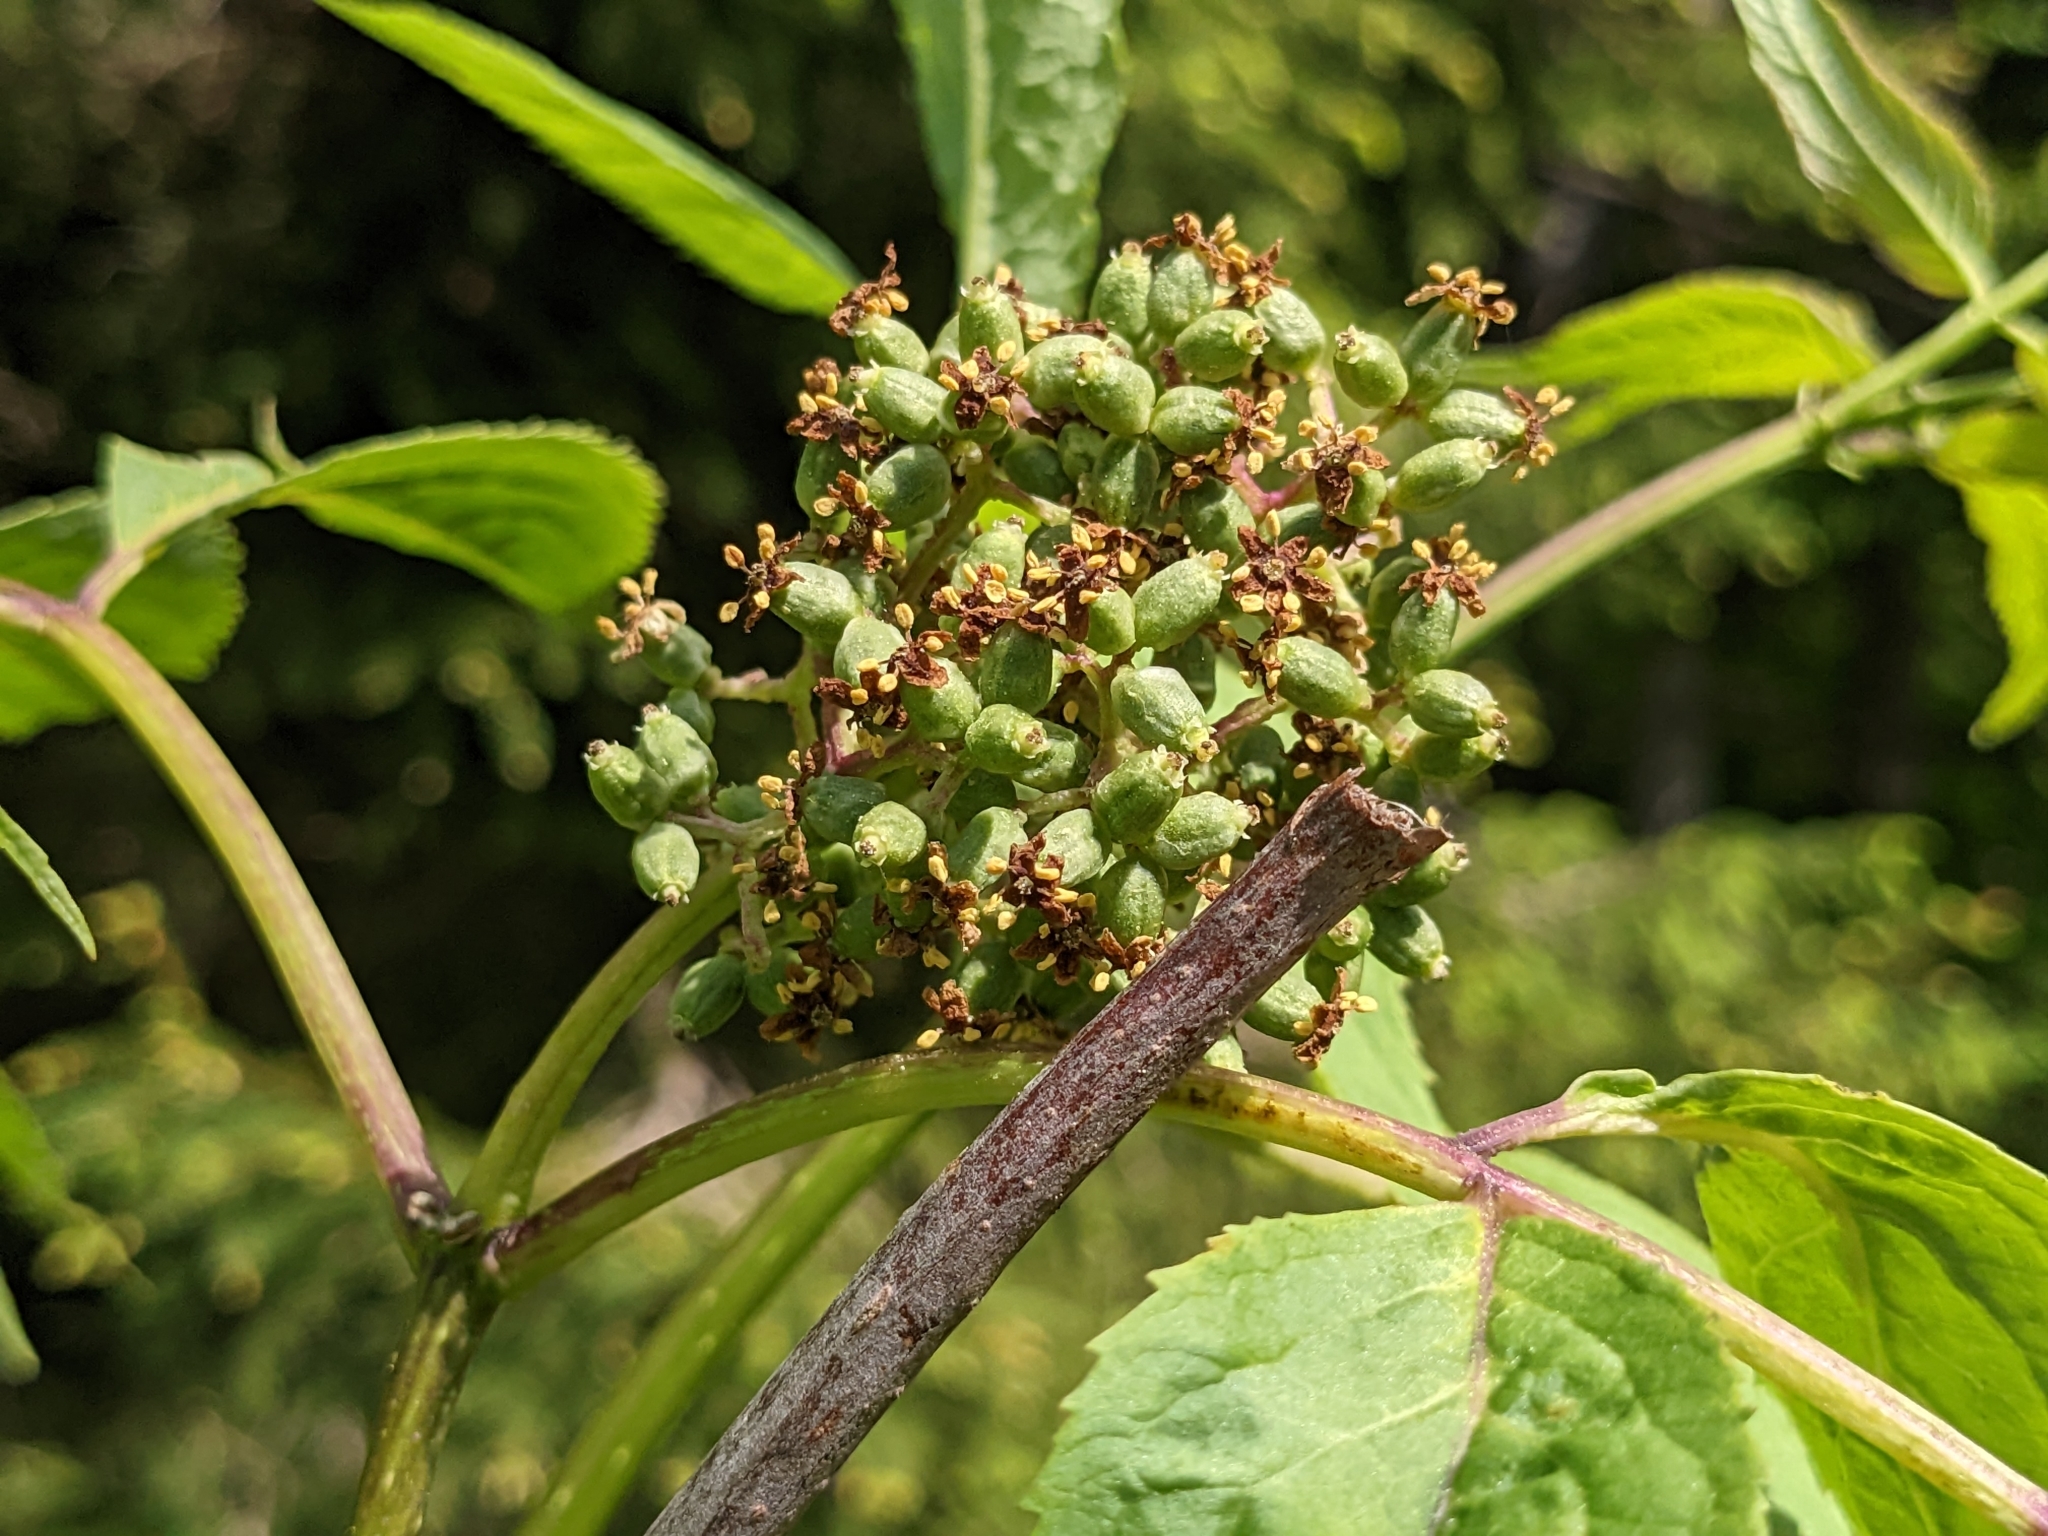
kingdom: Plantae
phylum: Tracheophyta
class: Magnoliopsida
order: Dipsacales
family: Viburnaceae
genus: Sambucus
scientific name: Sambucus racemosa
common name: Red-berried elder
